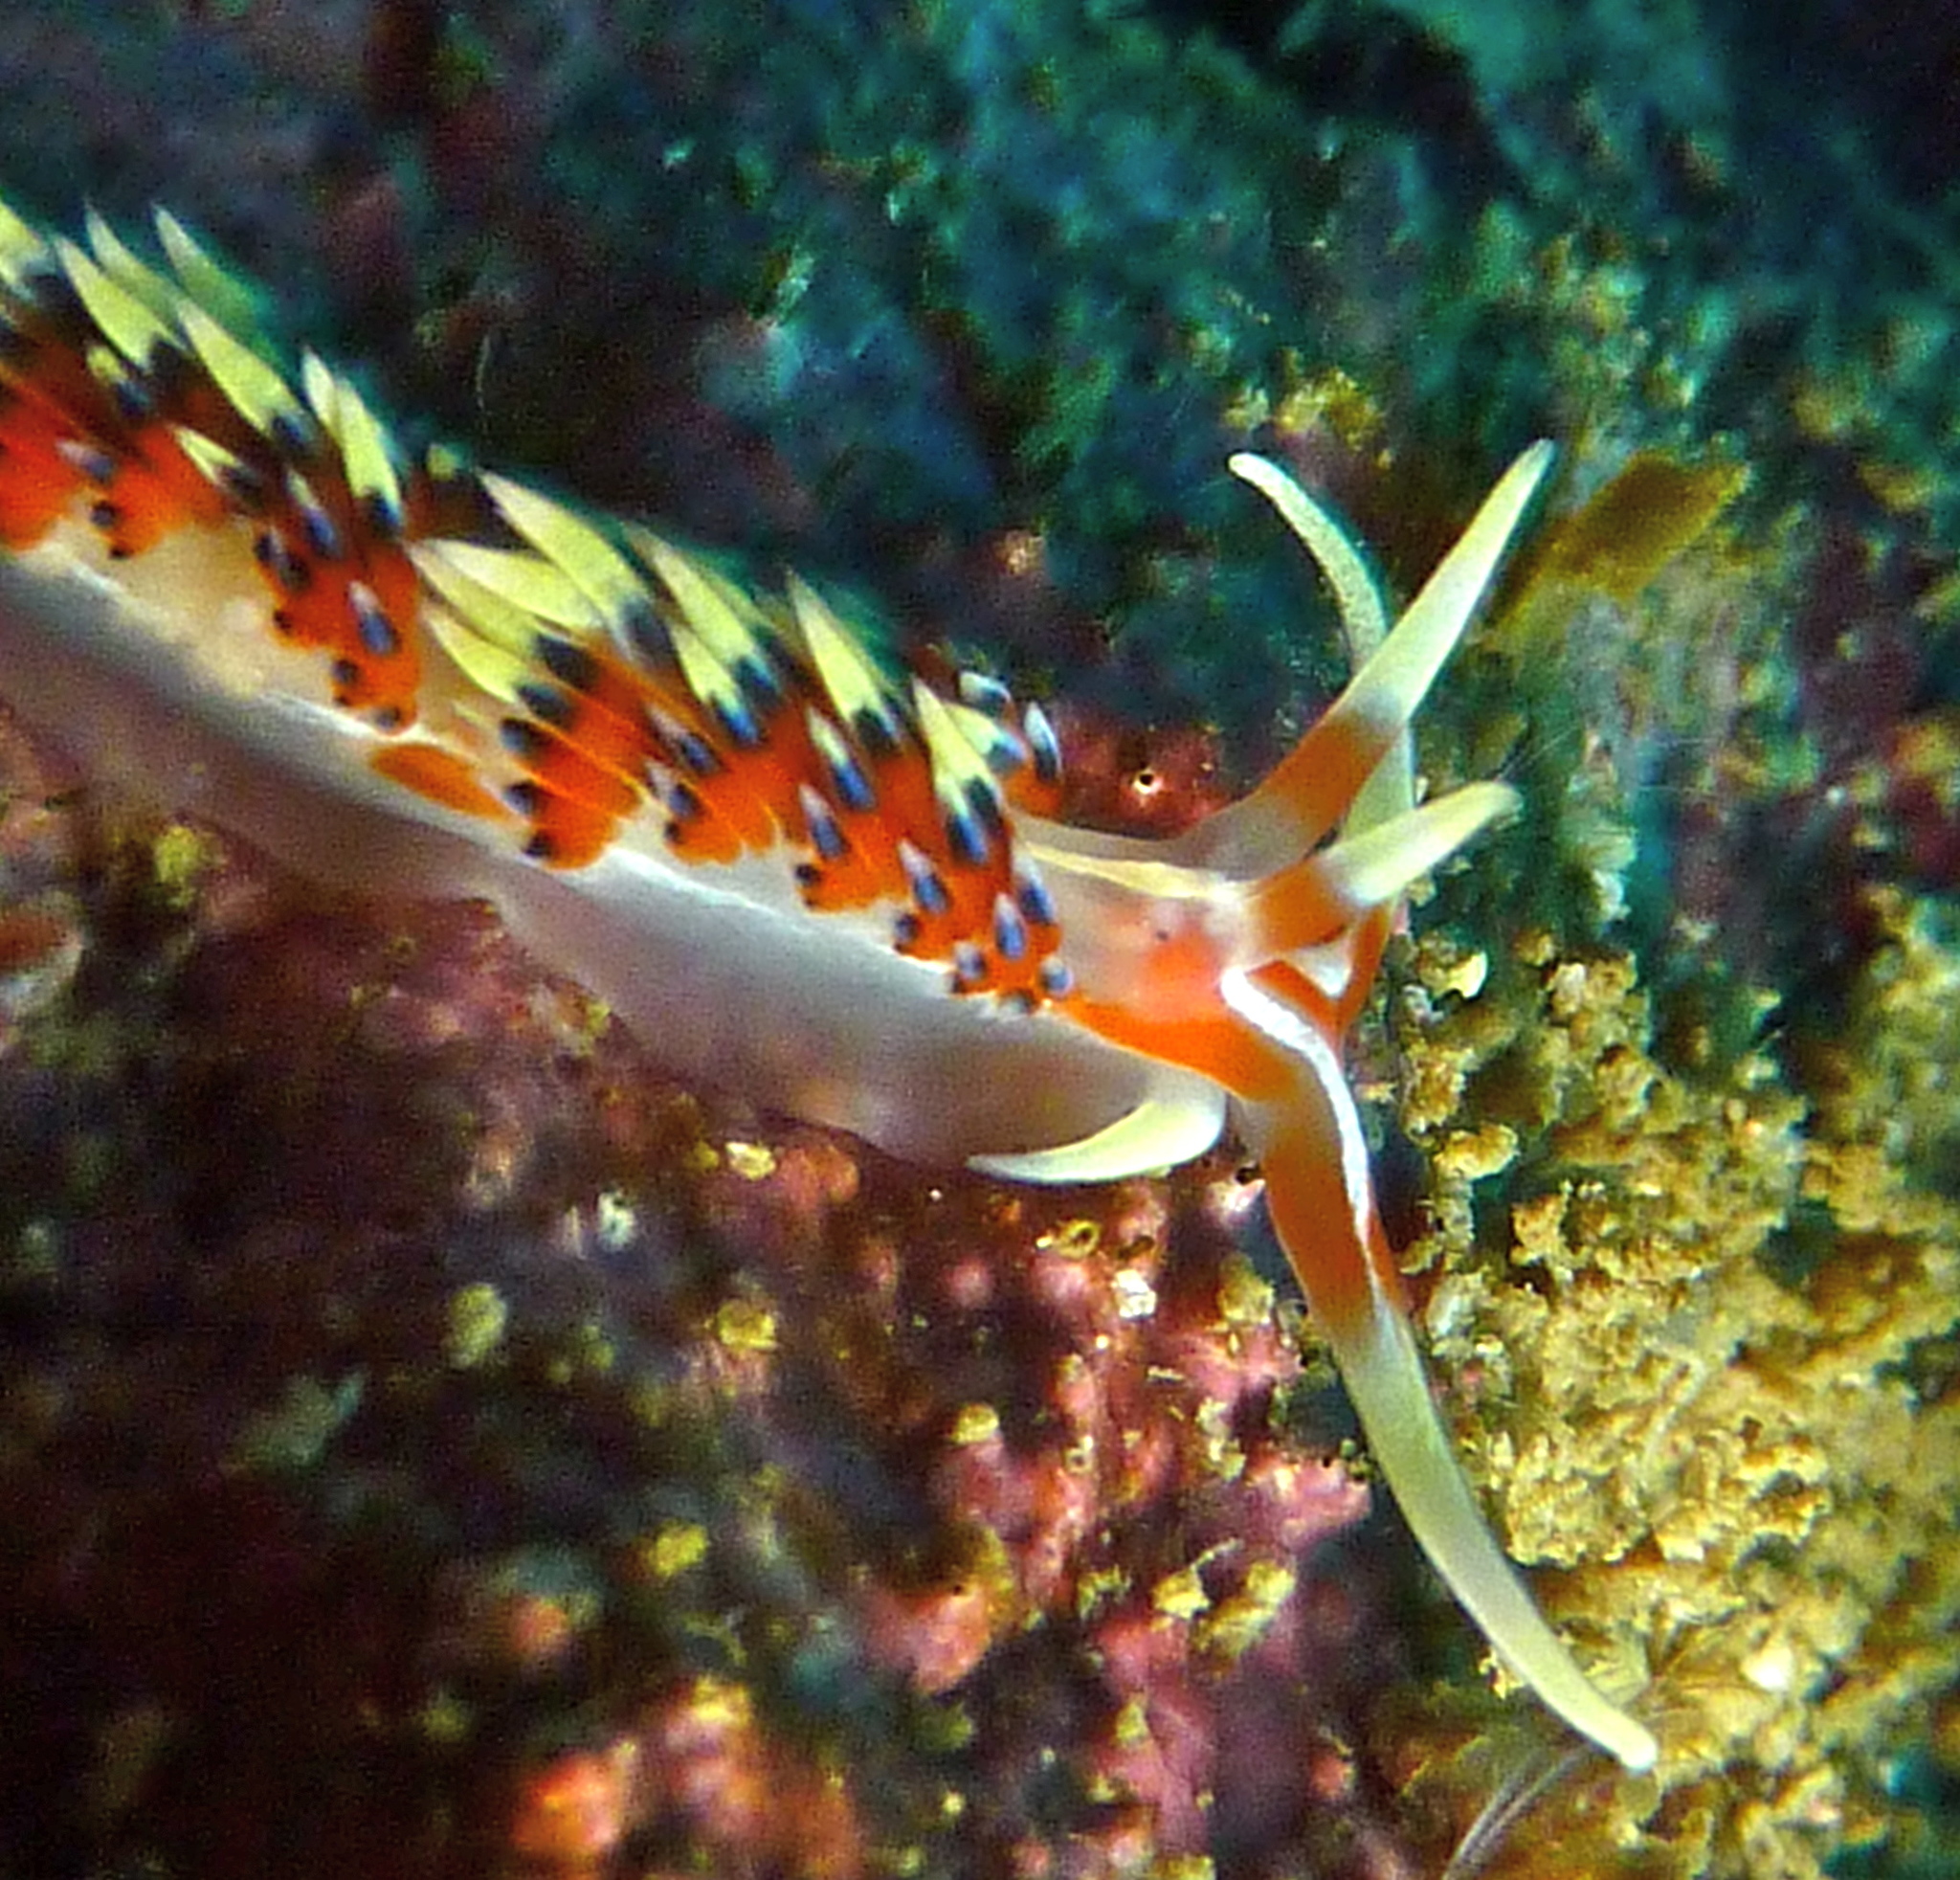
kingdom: Animalia
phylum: Mollusca
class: Gastropoda
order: Nudibranchia
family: Facelinidae
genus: Caloria
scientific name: Caloria indica
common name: Sea slug
